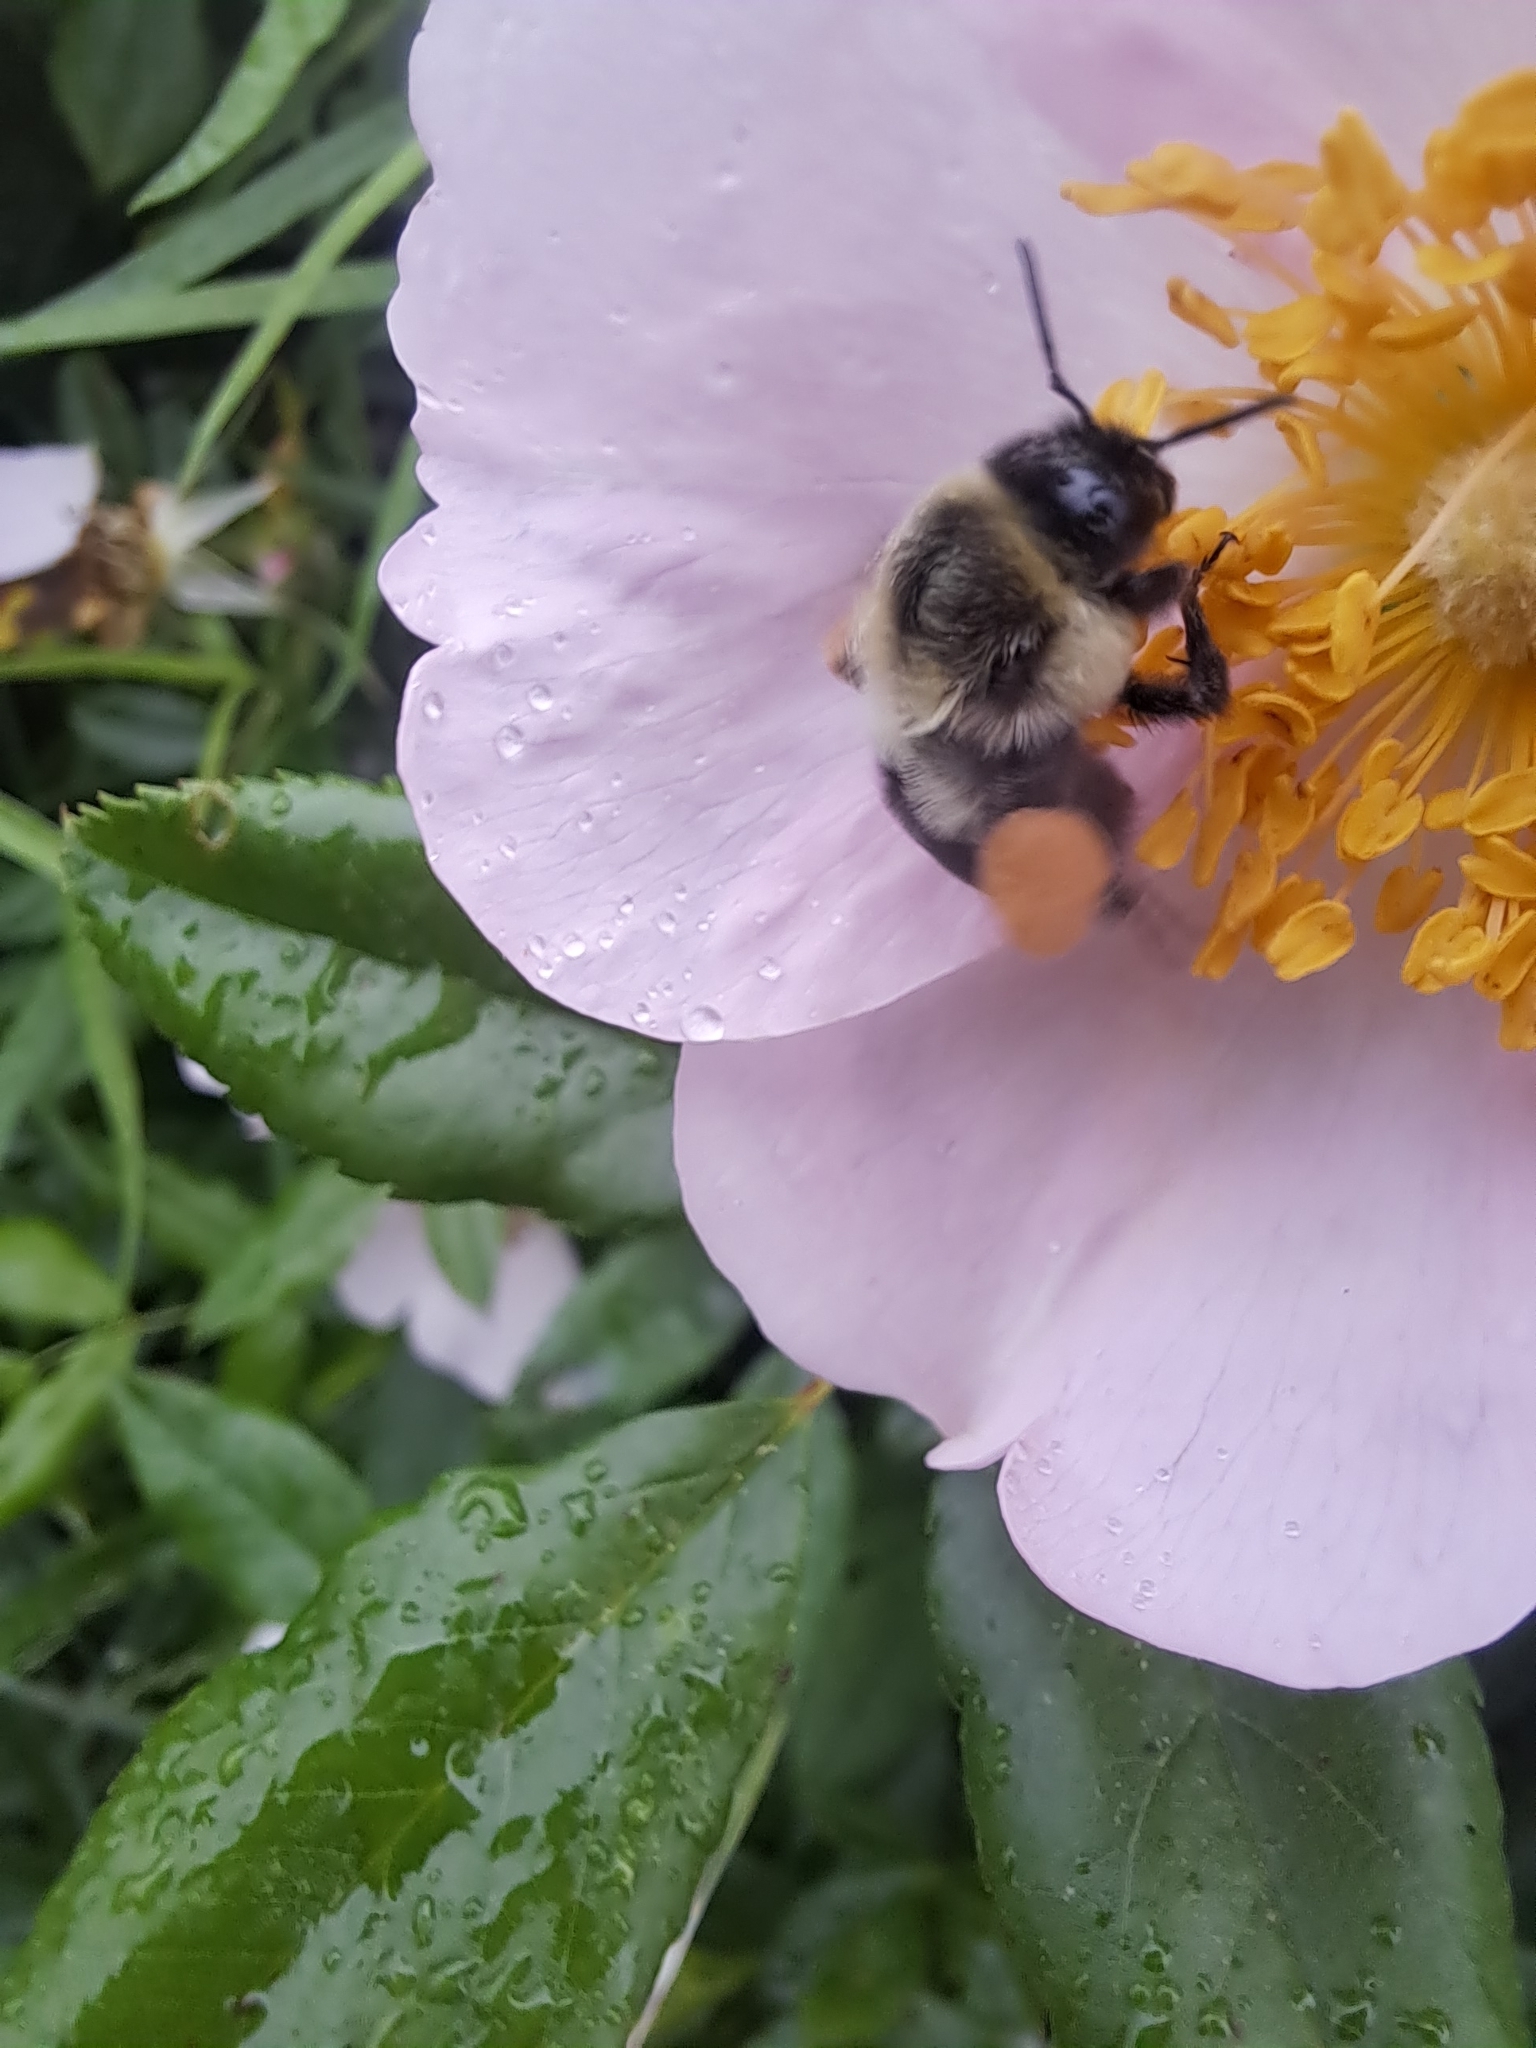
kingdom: Animalia
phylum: Arthropoda
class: Insecta
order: Hymenoptera
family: Apidae
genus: Bombus
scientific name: Bombus impatiens
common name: Common eastern bumble bee
